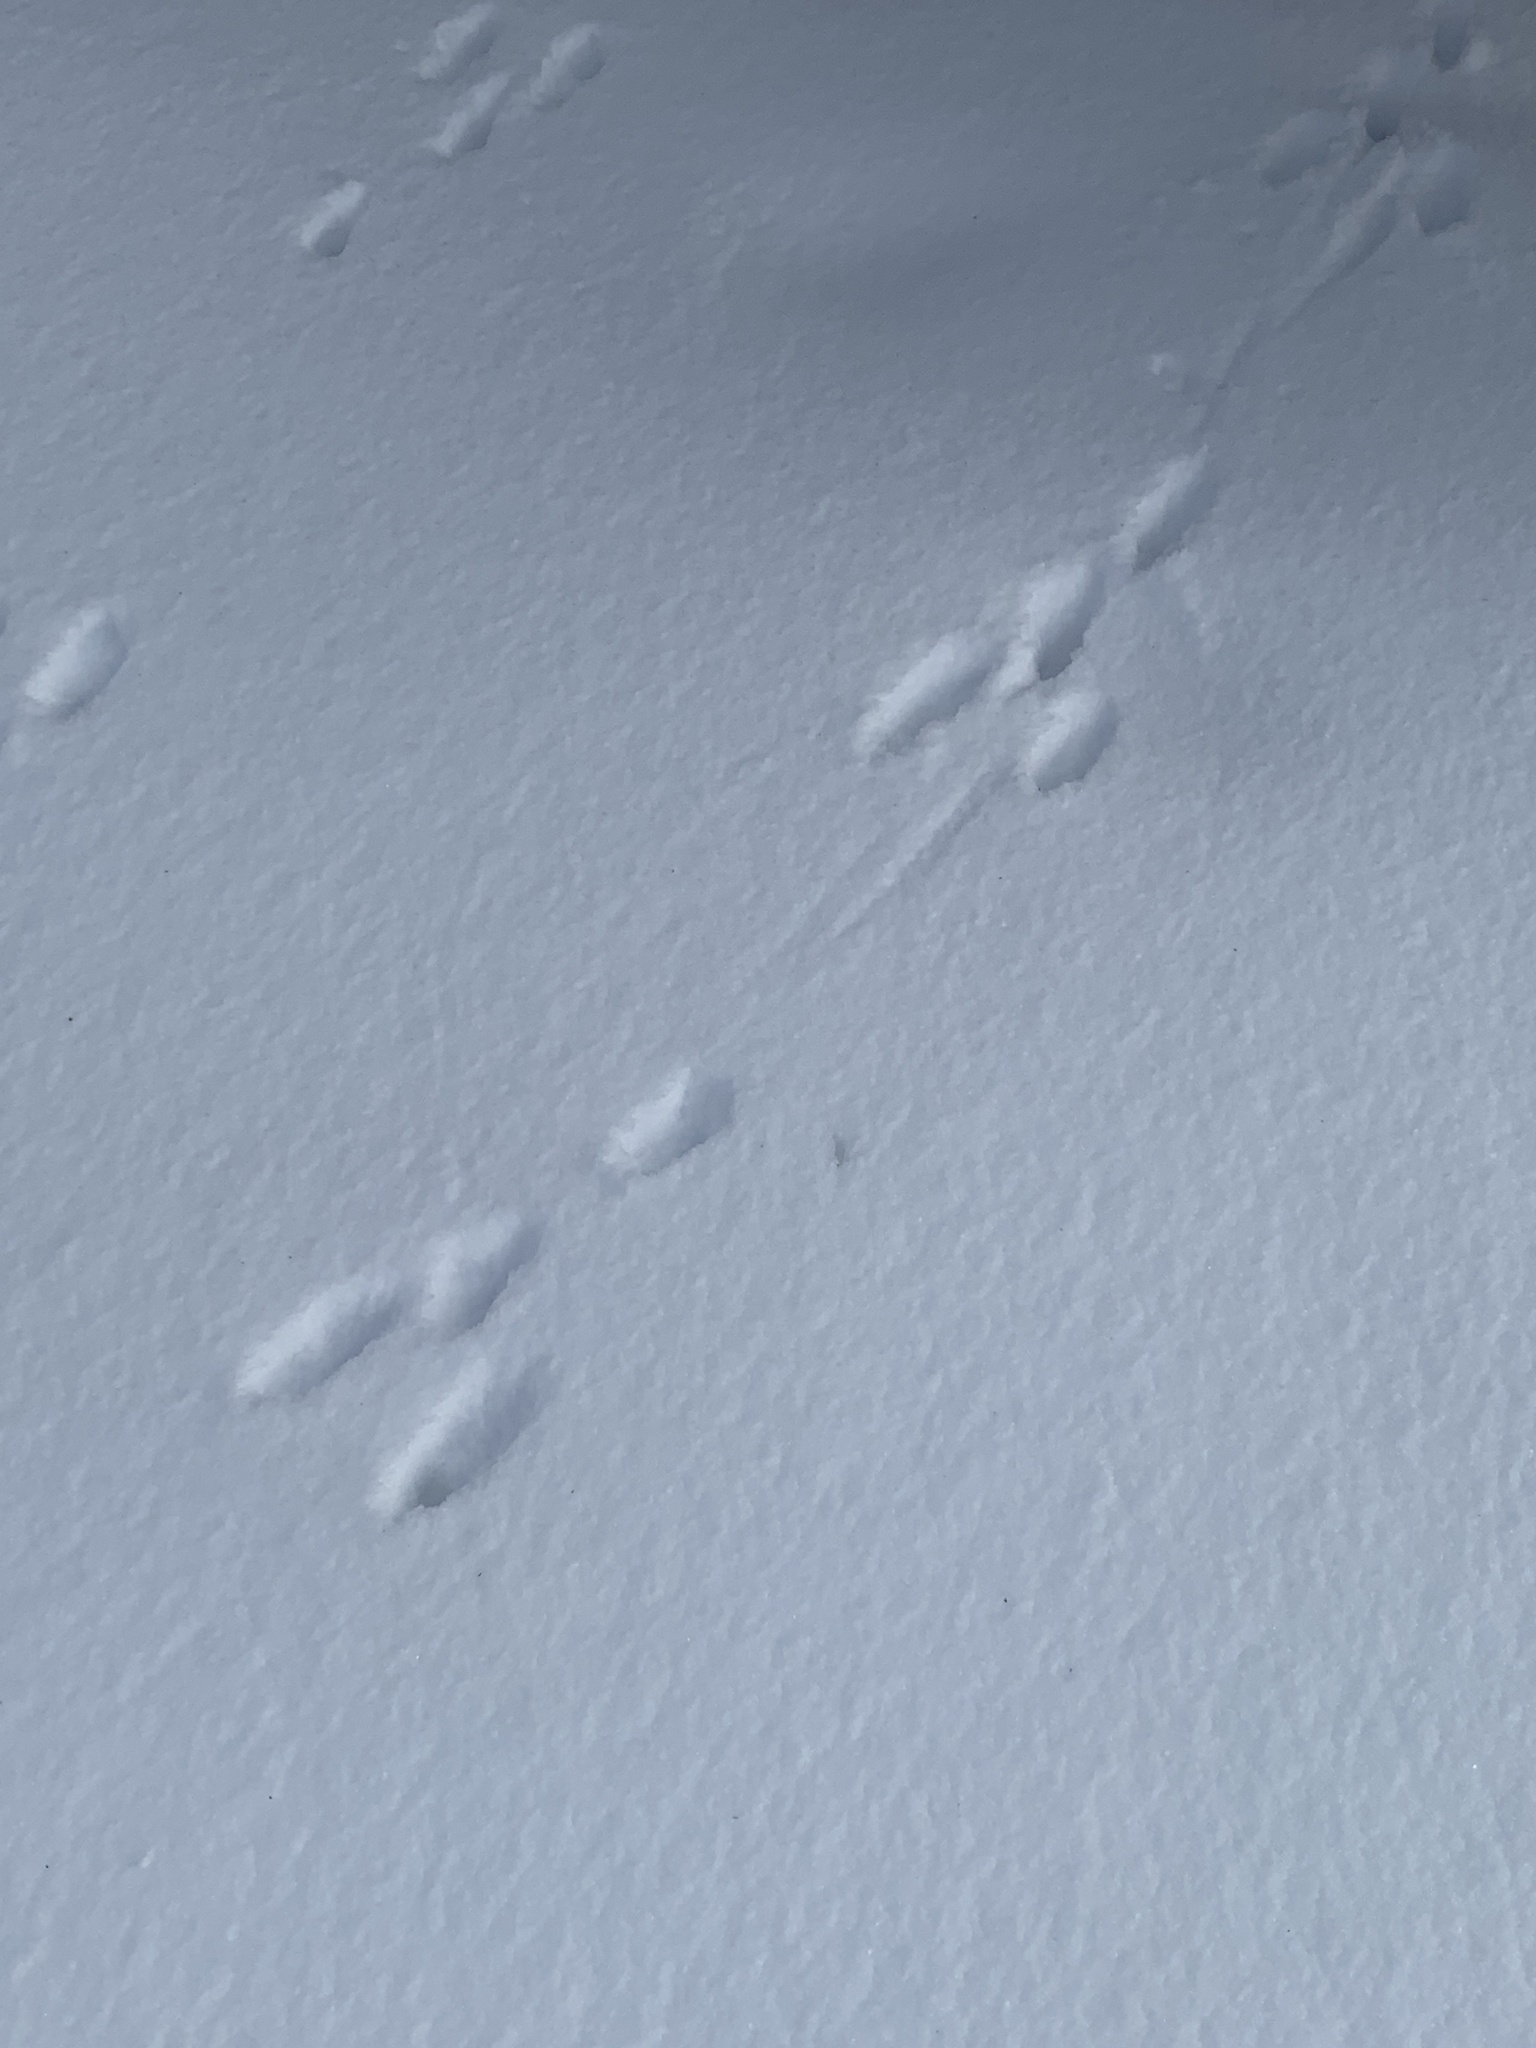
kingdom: Animalia
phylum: Chordata
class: Mammalia
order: Lagomorpha
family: Leporidae
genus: Sylvilagus
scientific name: Sylvilagus floridanus
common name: Eastern cottontail
